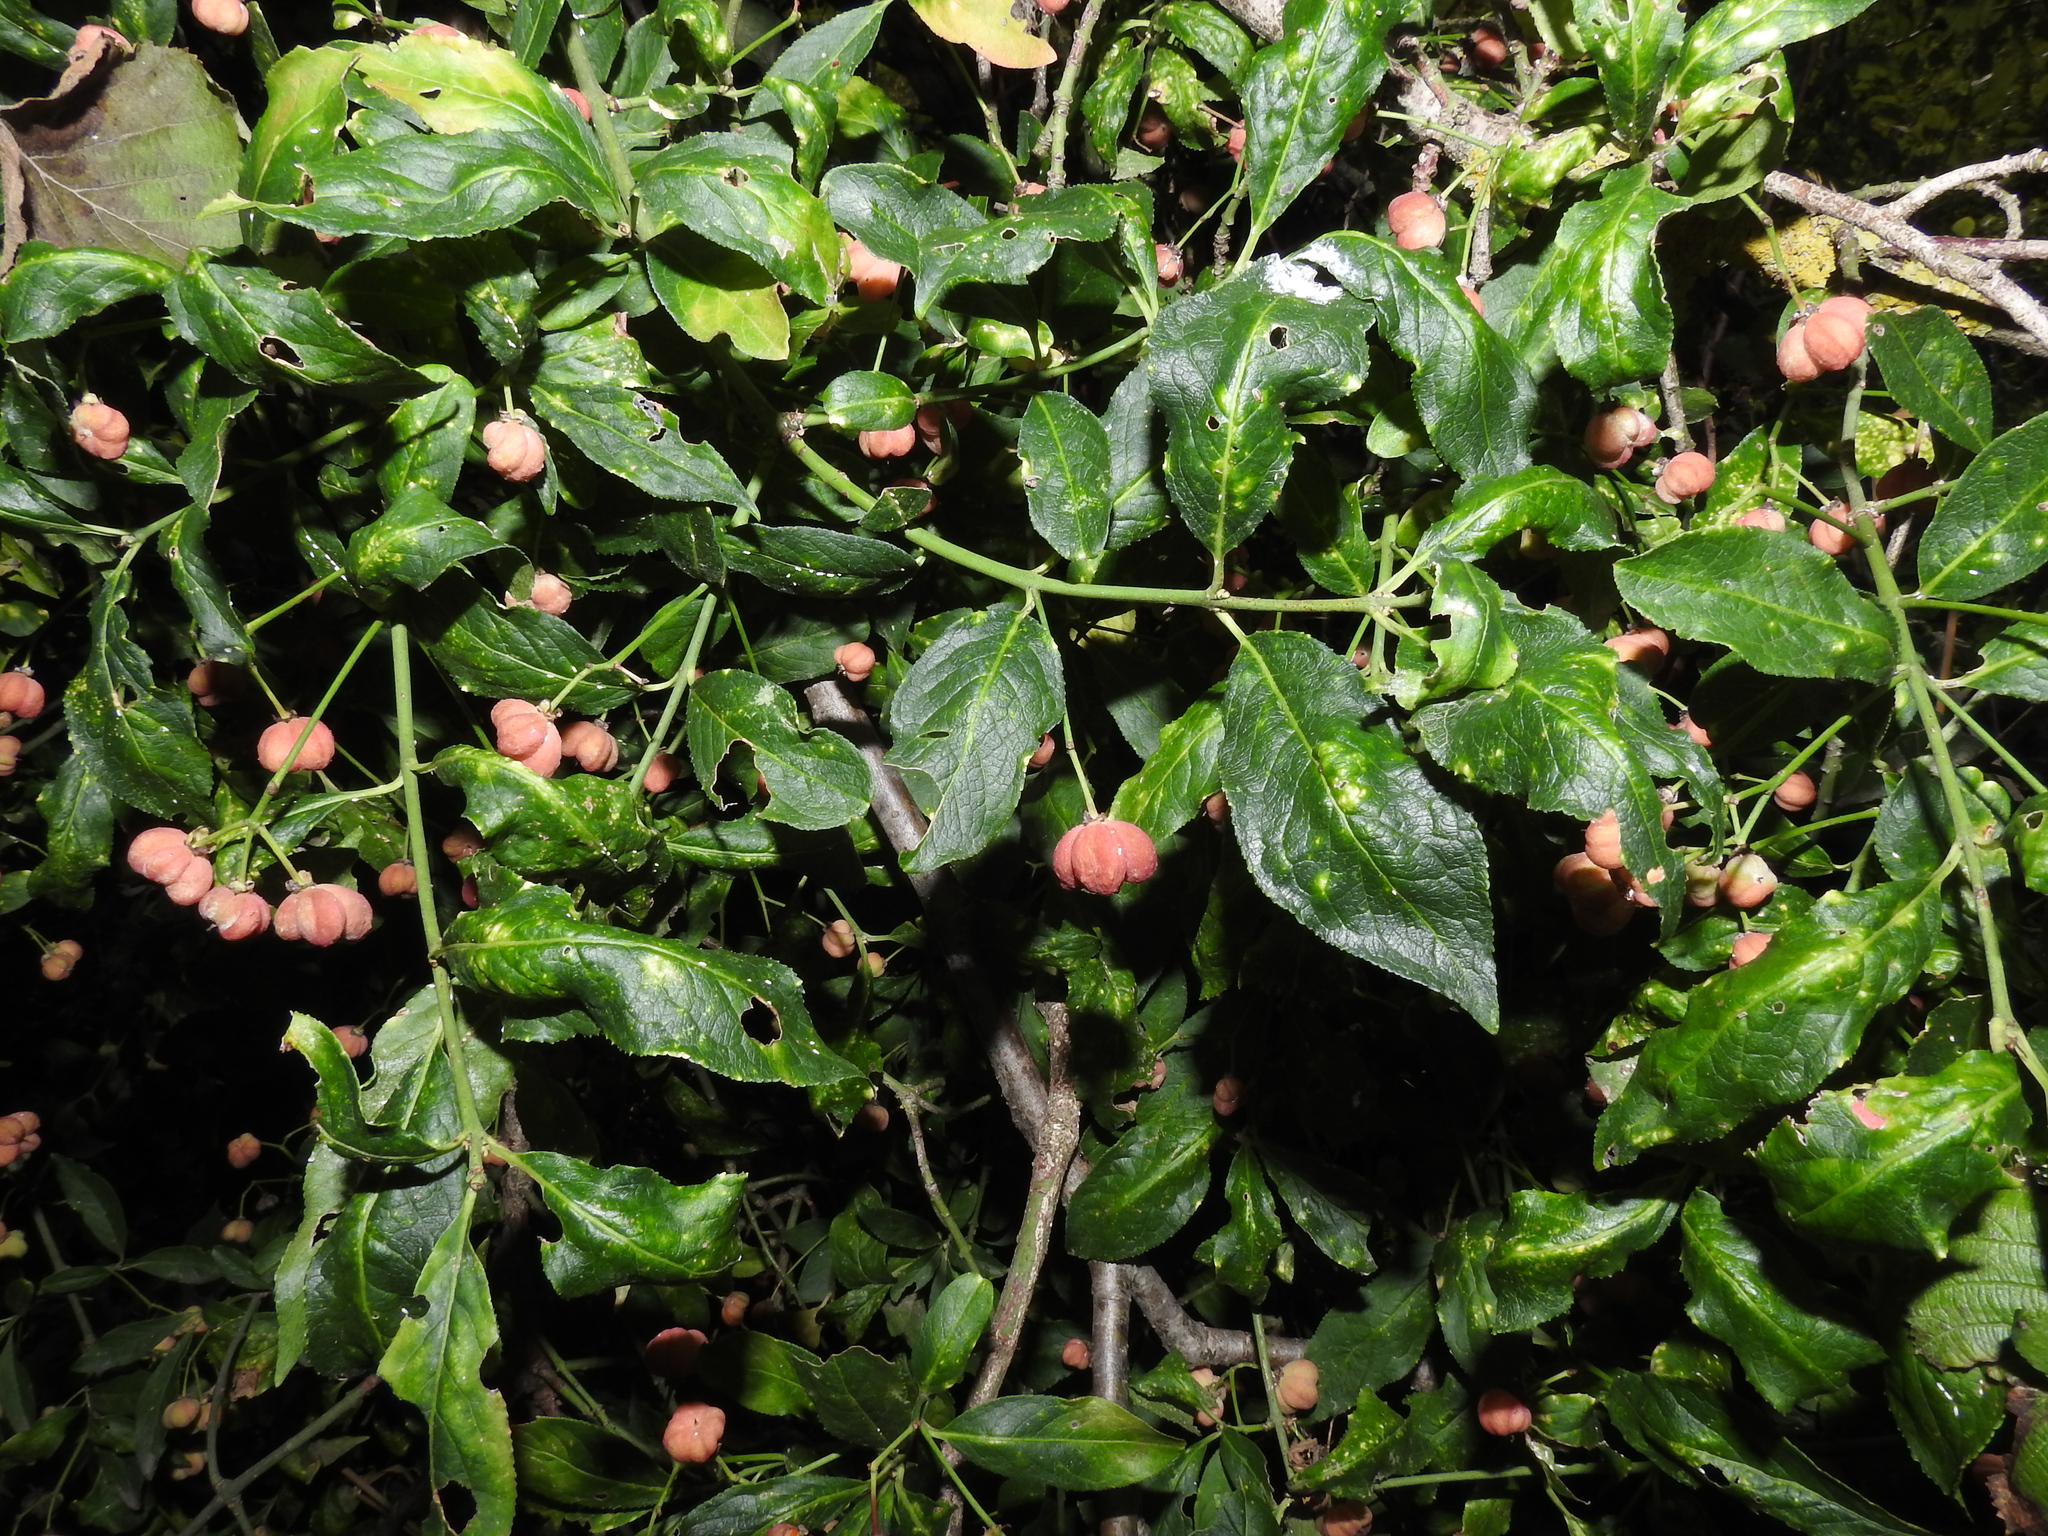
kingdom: Plantae
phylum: Tracheophyta
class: Magnoliopsida
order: Celastrales
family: Celastraceae
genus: Euonymus
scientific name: Euonymus europaeus
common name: Spindle
